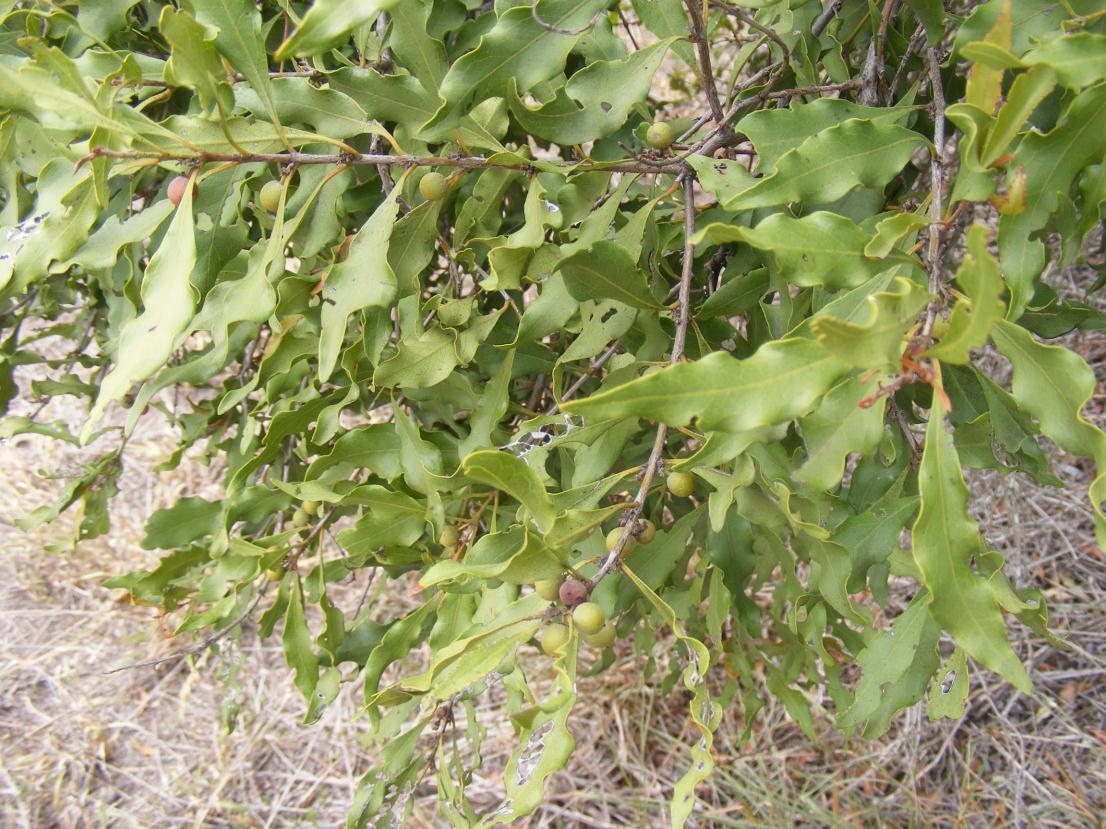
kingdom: Plantae
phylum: Tracheophyta
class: Magnoliopsida
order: Ericales
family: Ebenaceae
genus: Euclea
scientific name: Euclea divinorum
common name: Diamond-leaved euclea
